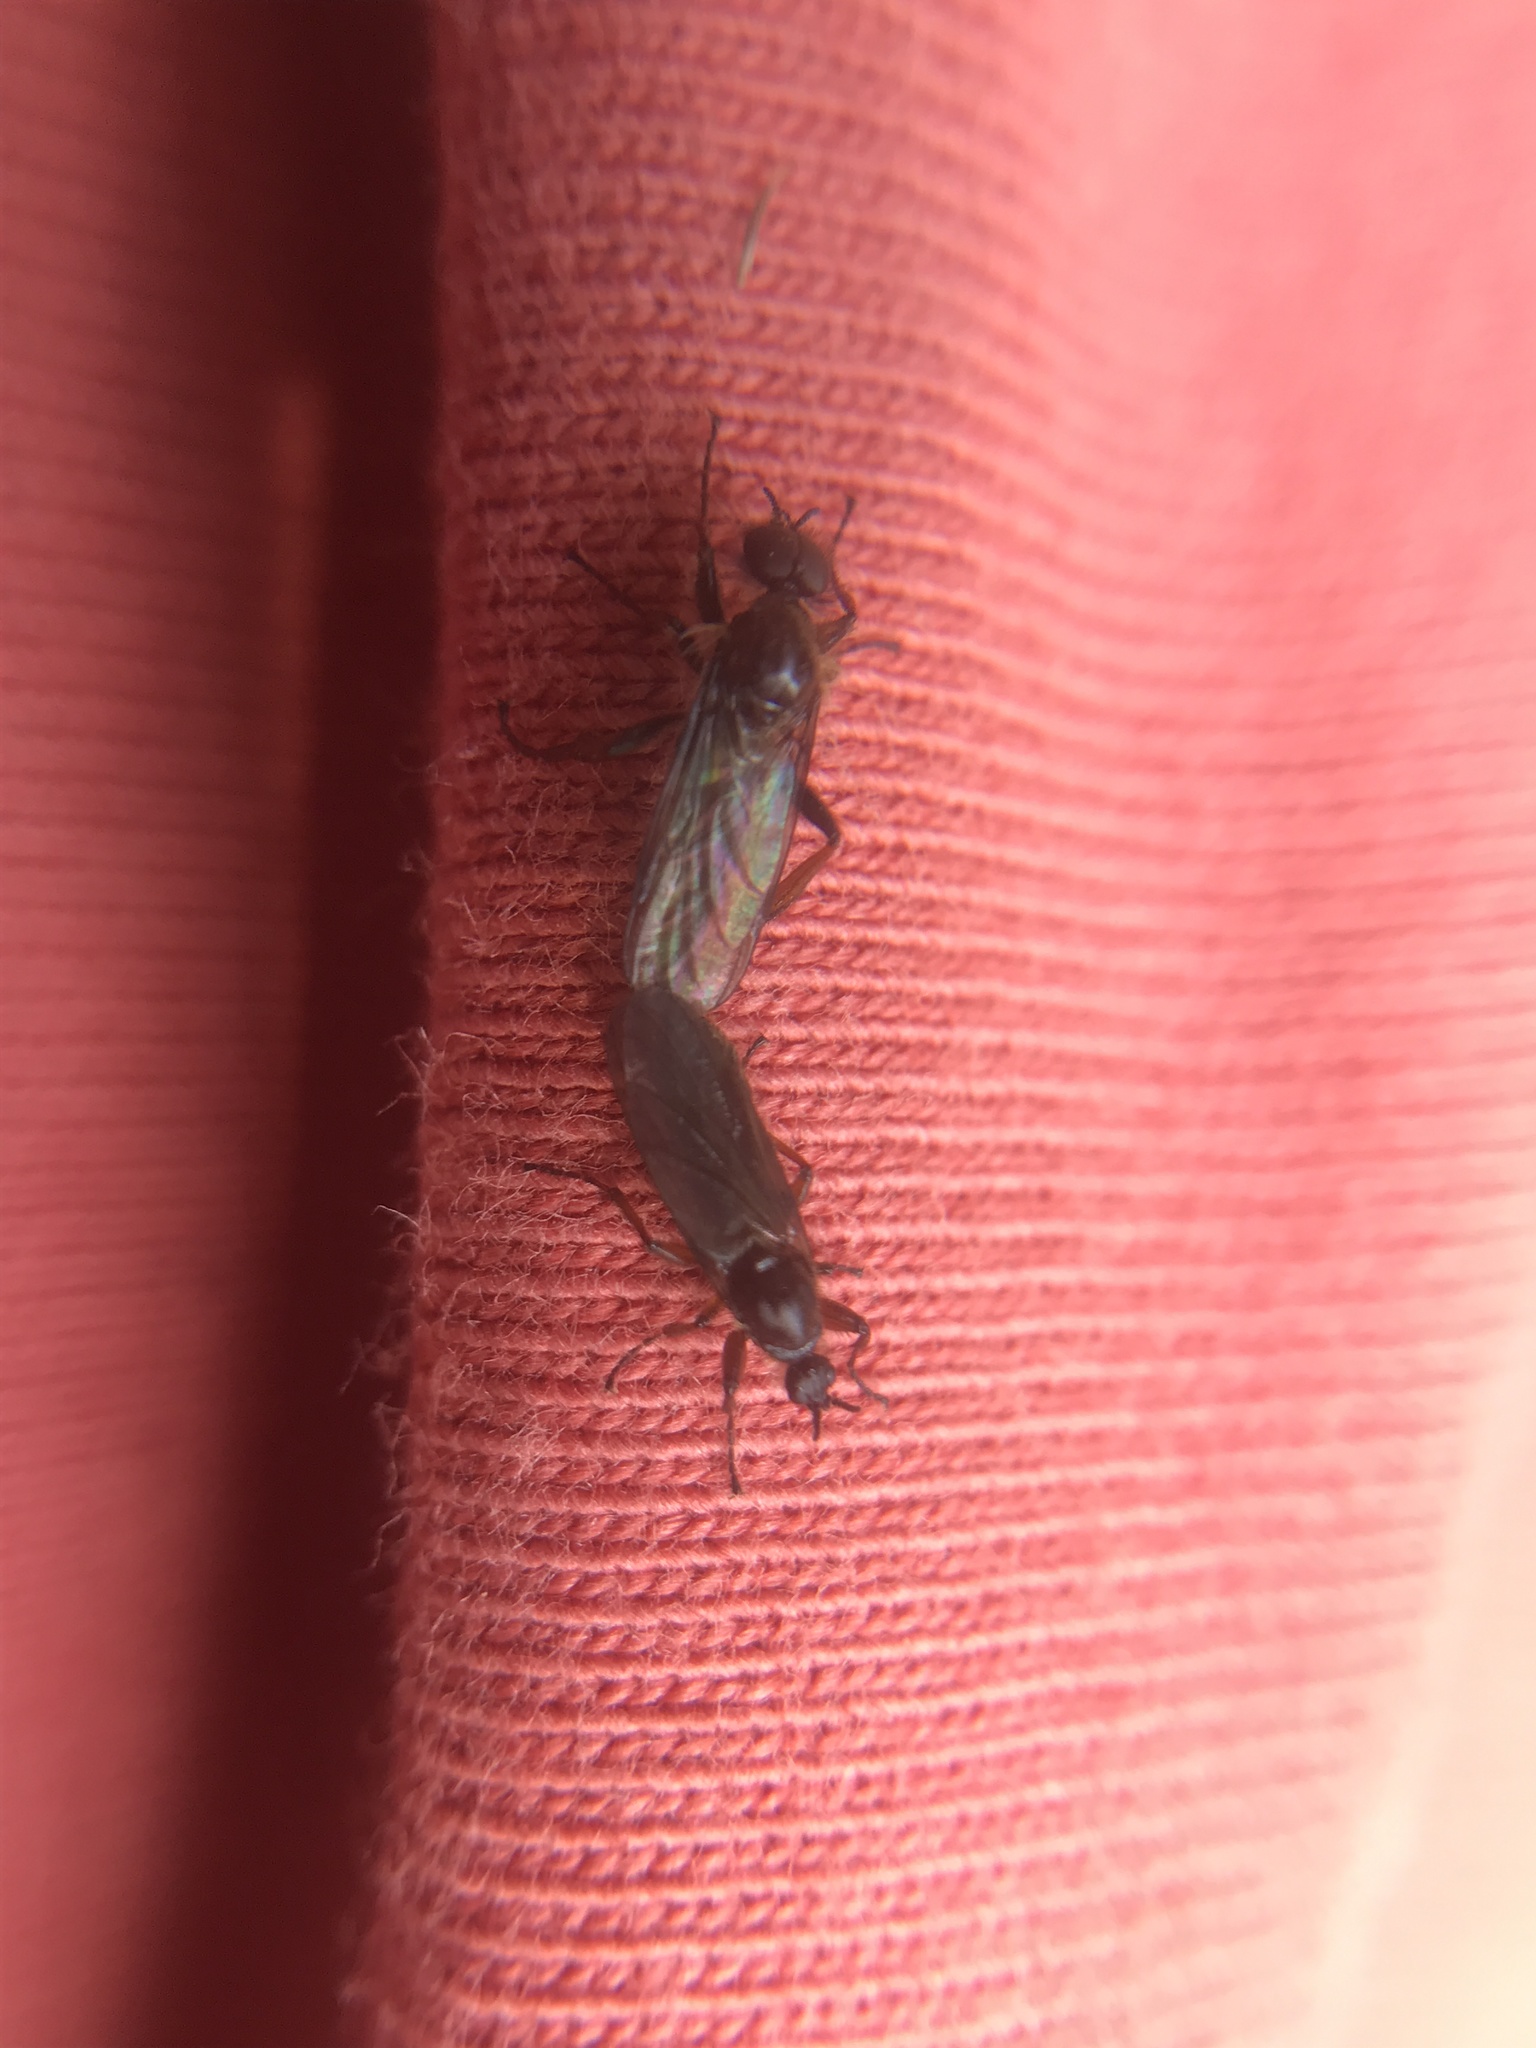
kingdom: Animalia
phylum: Arthropoda
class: Insecta
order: Diptera
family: Bibionidae
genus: Bibio
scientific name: Bibio marci
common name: St marks fly
